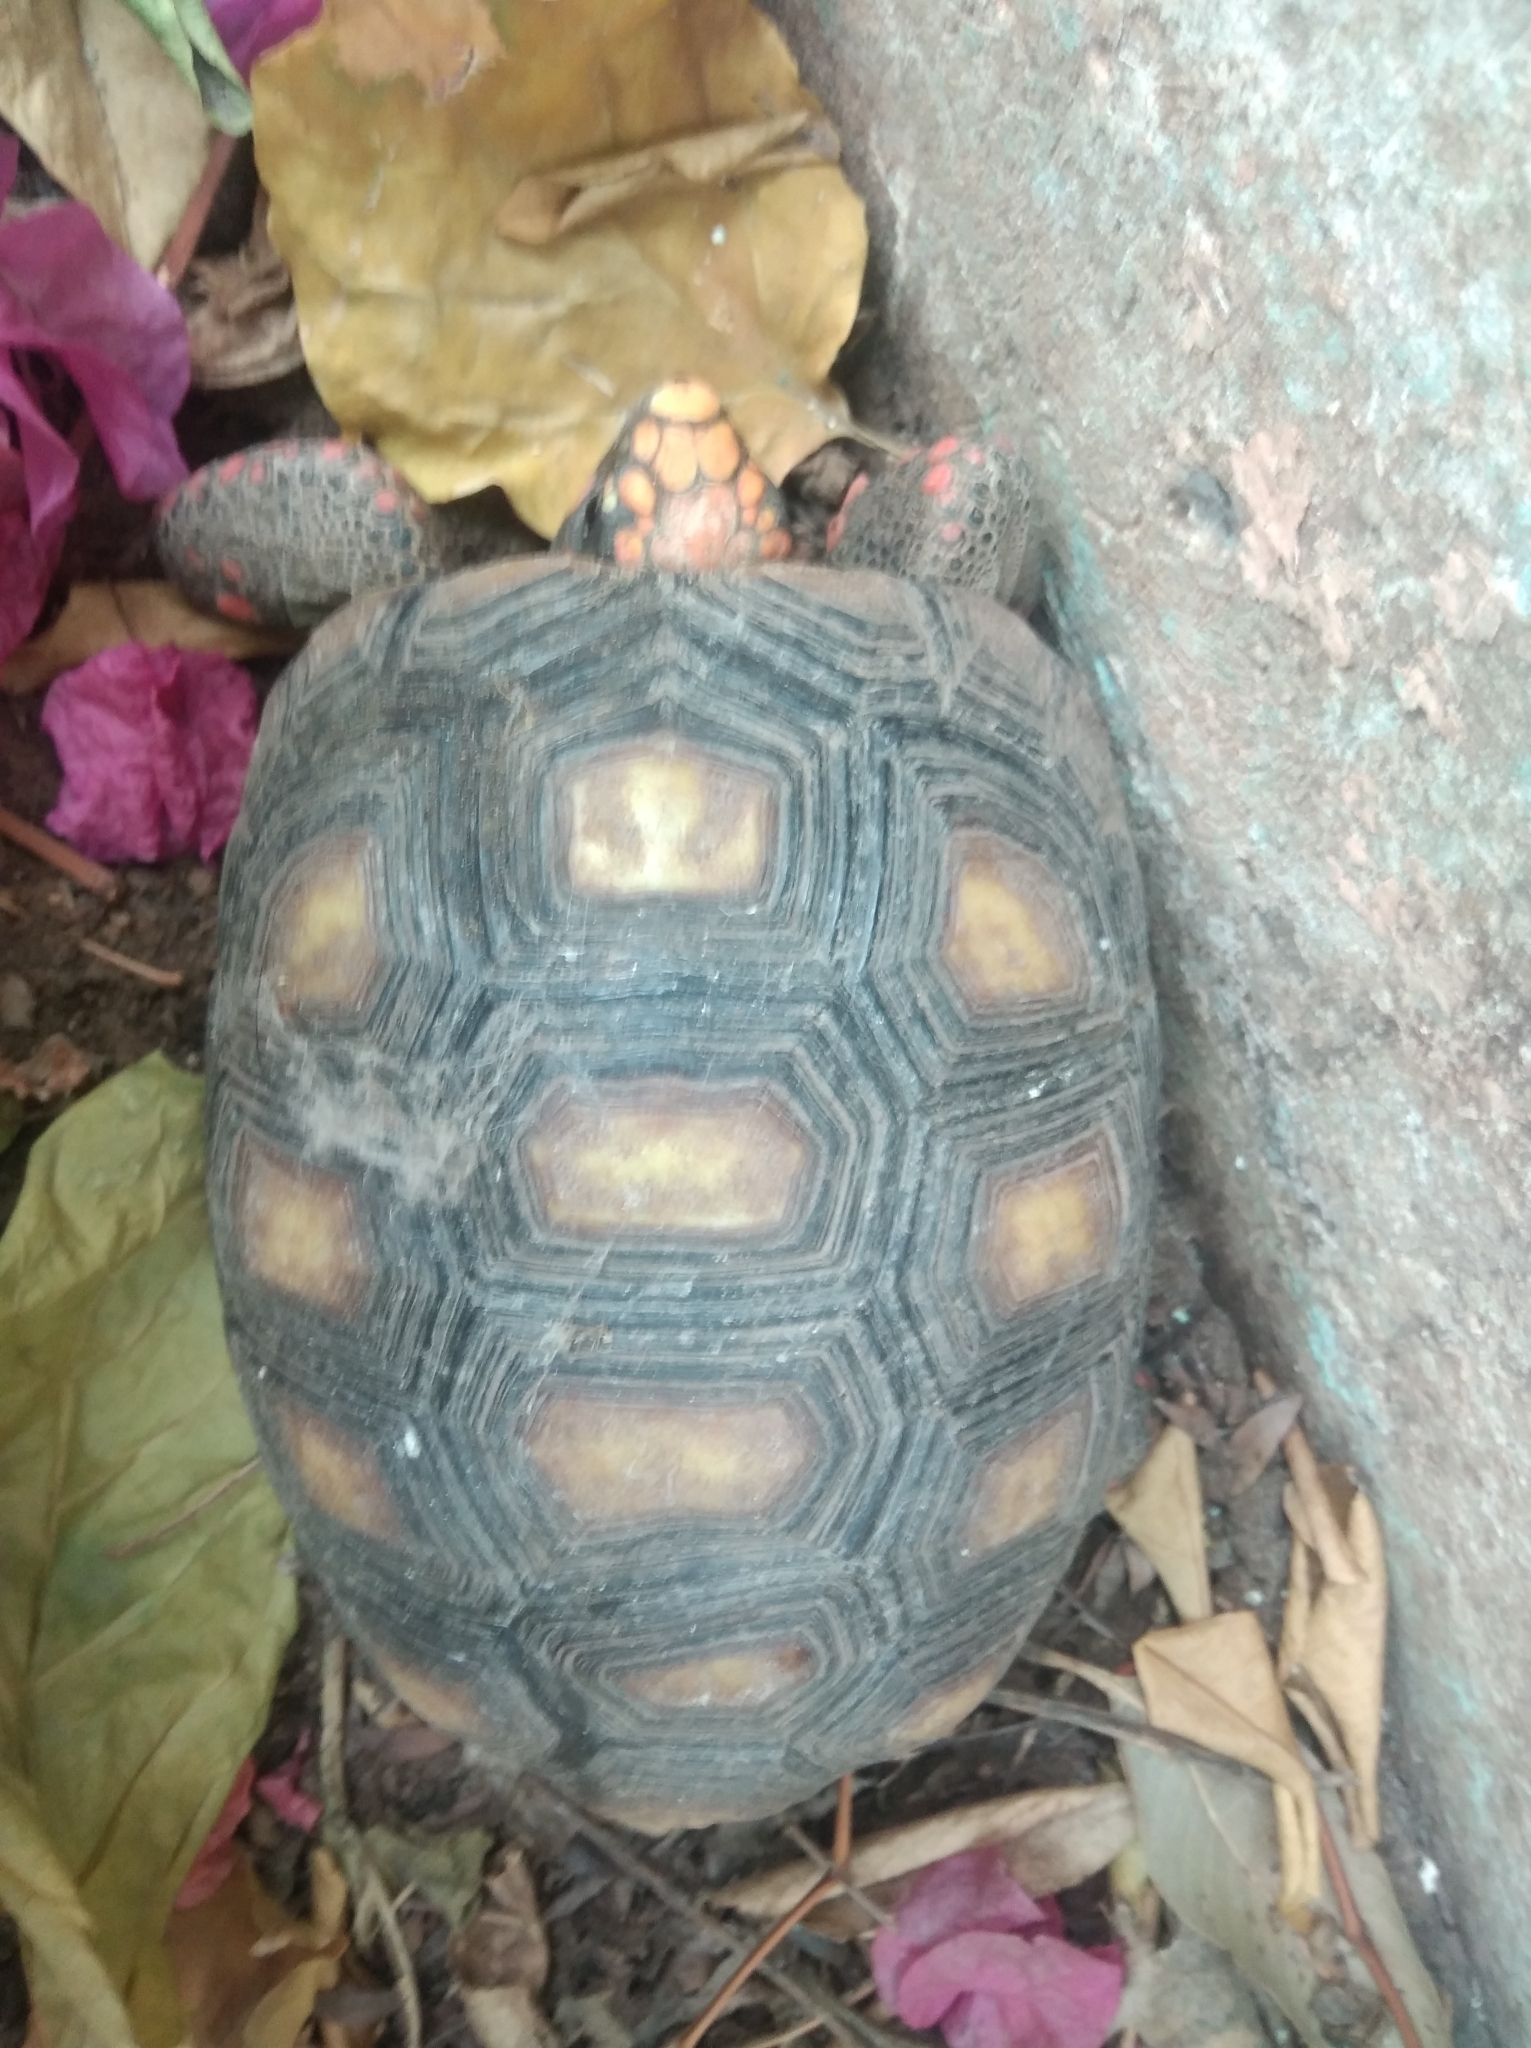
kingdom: Animalia
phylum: Chordata
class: Testudines
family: Testudinidae
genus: Chelonoidis
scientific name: Chelonoidis carbonarius
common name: Red-footed tortoise
